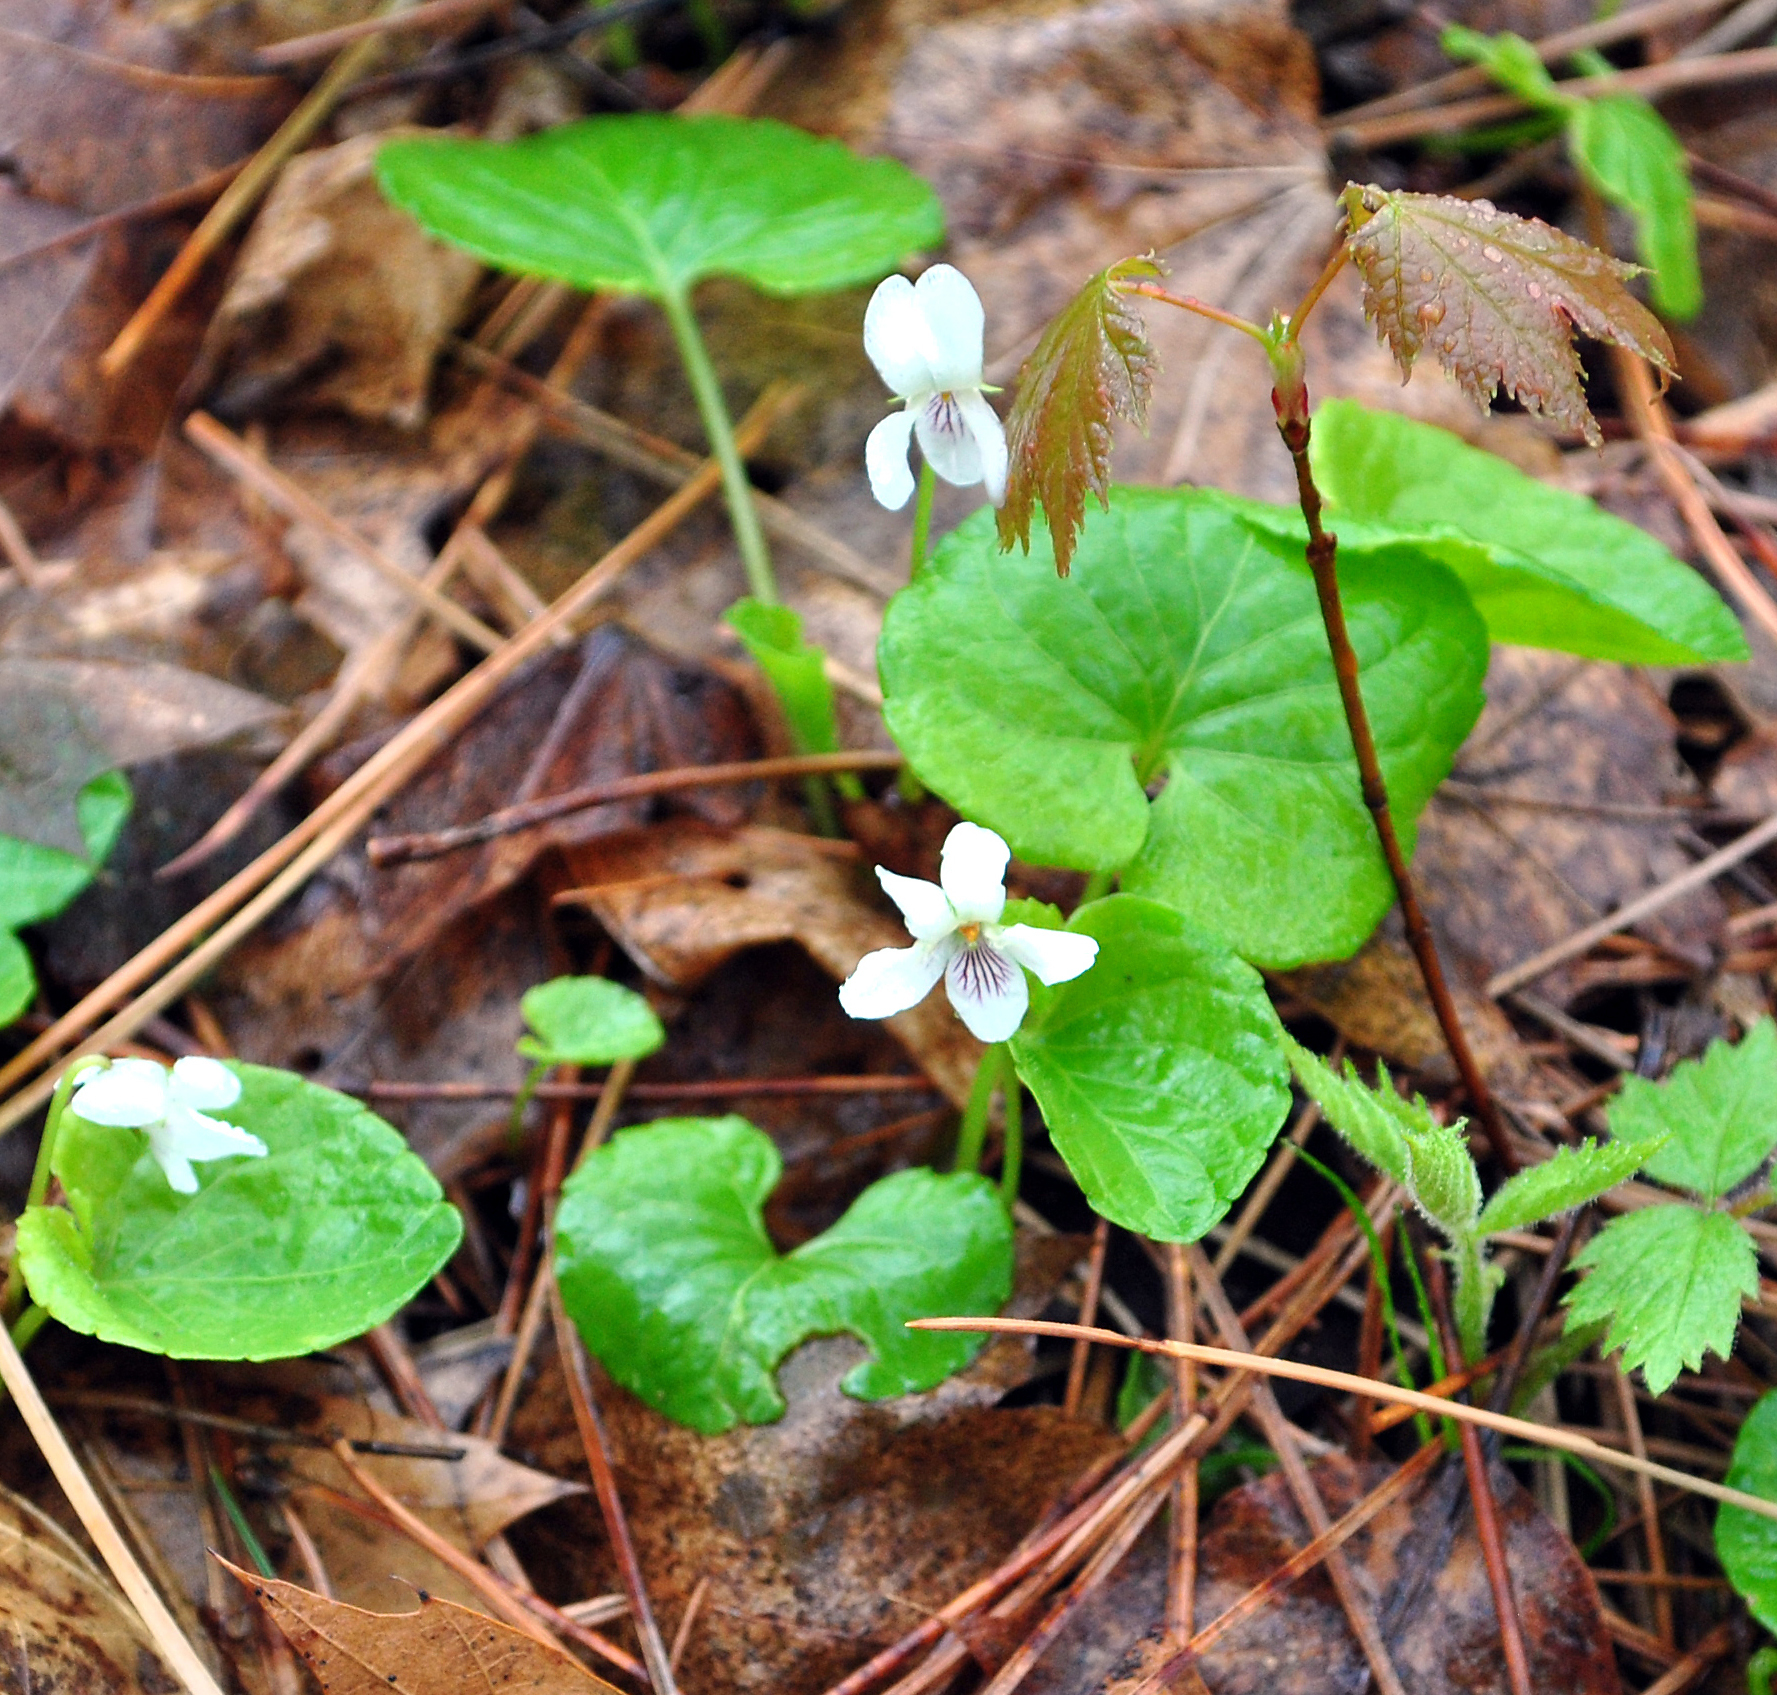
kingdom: Plantae
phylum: Tracheophyta
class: Magnoliopsida
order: Malpighiales
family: Violaceae
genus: Viola
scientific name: Viola blanda
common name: Sweet white violet
